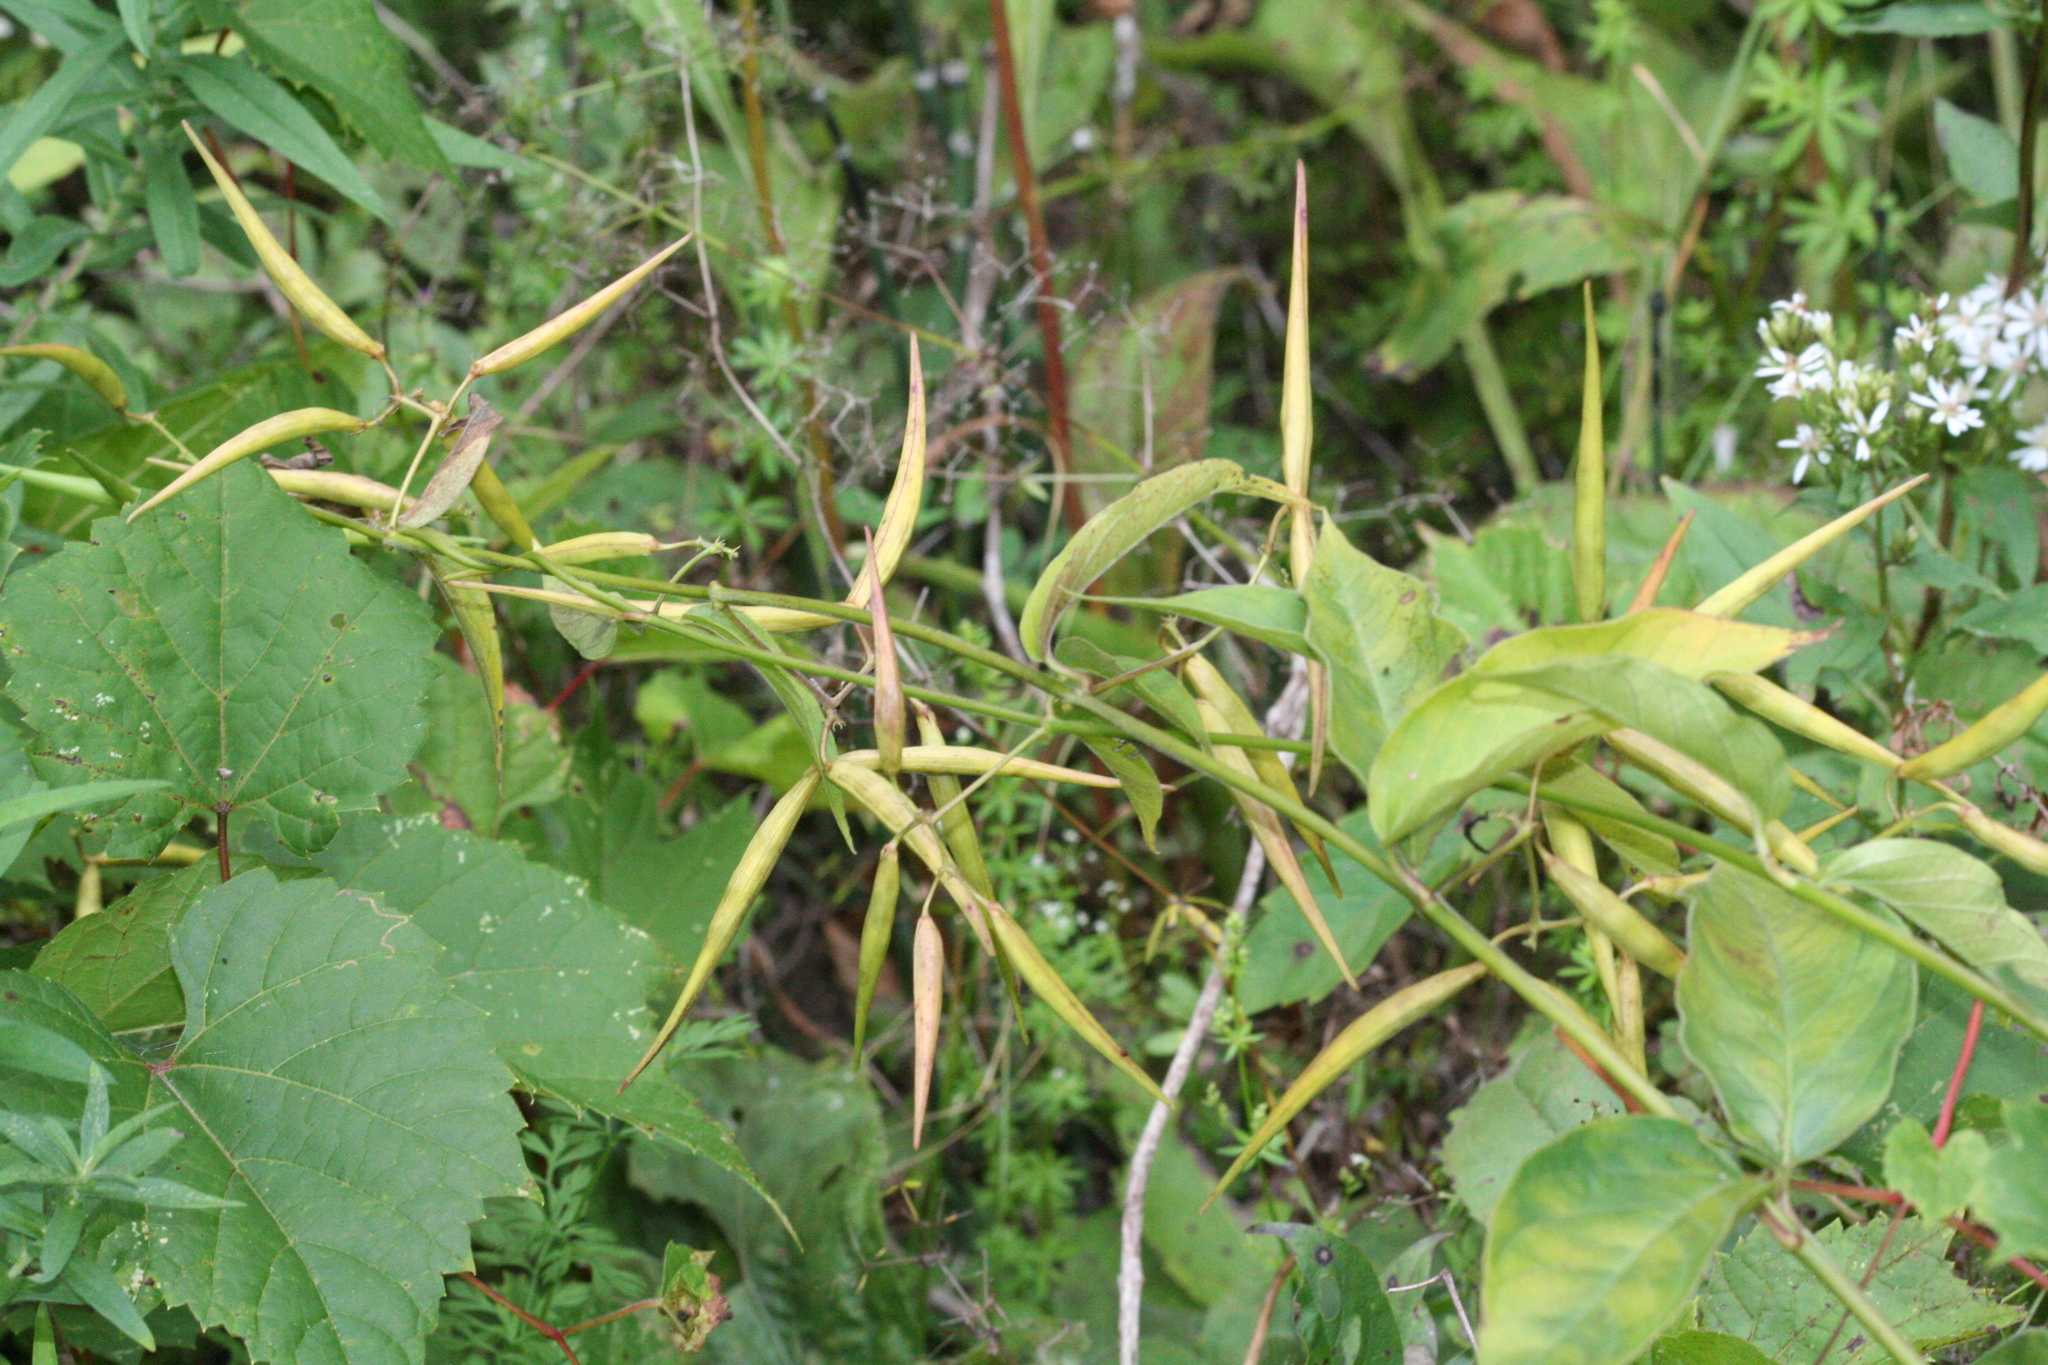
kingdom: Plantae
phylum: Tracheophyta
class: Magnoliopsida
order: Gentianales
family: Apocynaceae
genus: Vincetoxicum
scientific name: Vincetoxicum rossicum
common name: Dog-strangling vine
